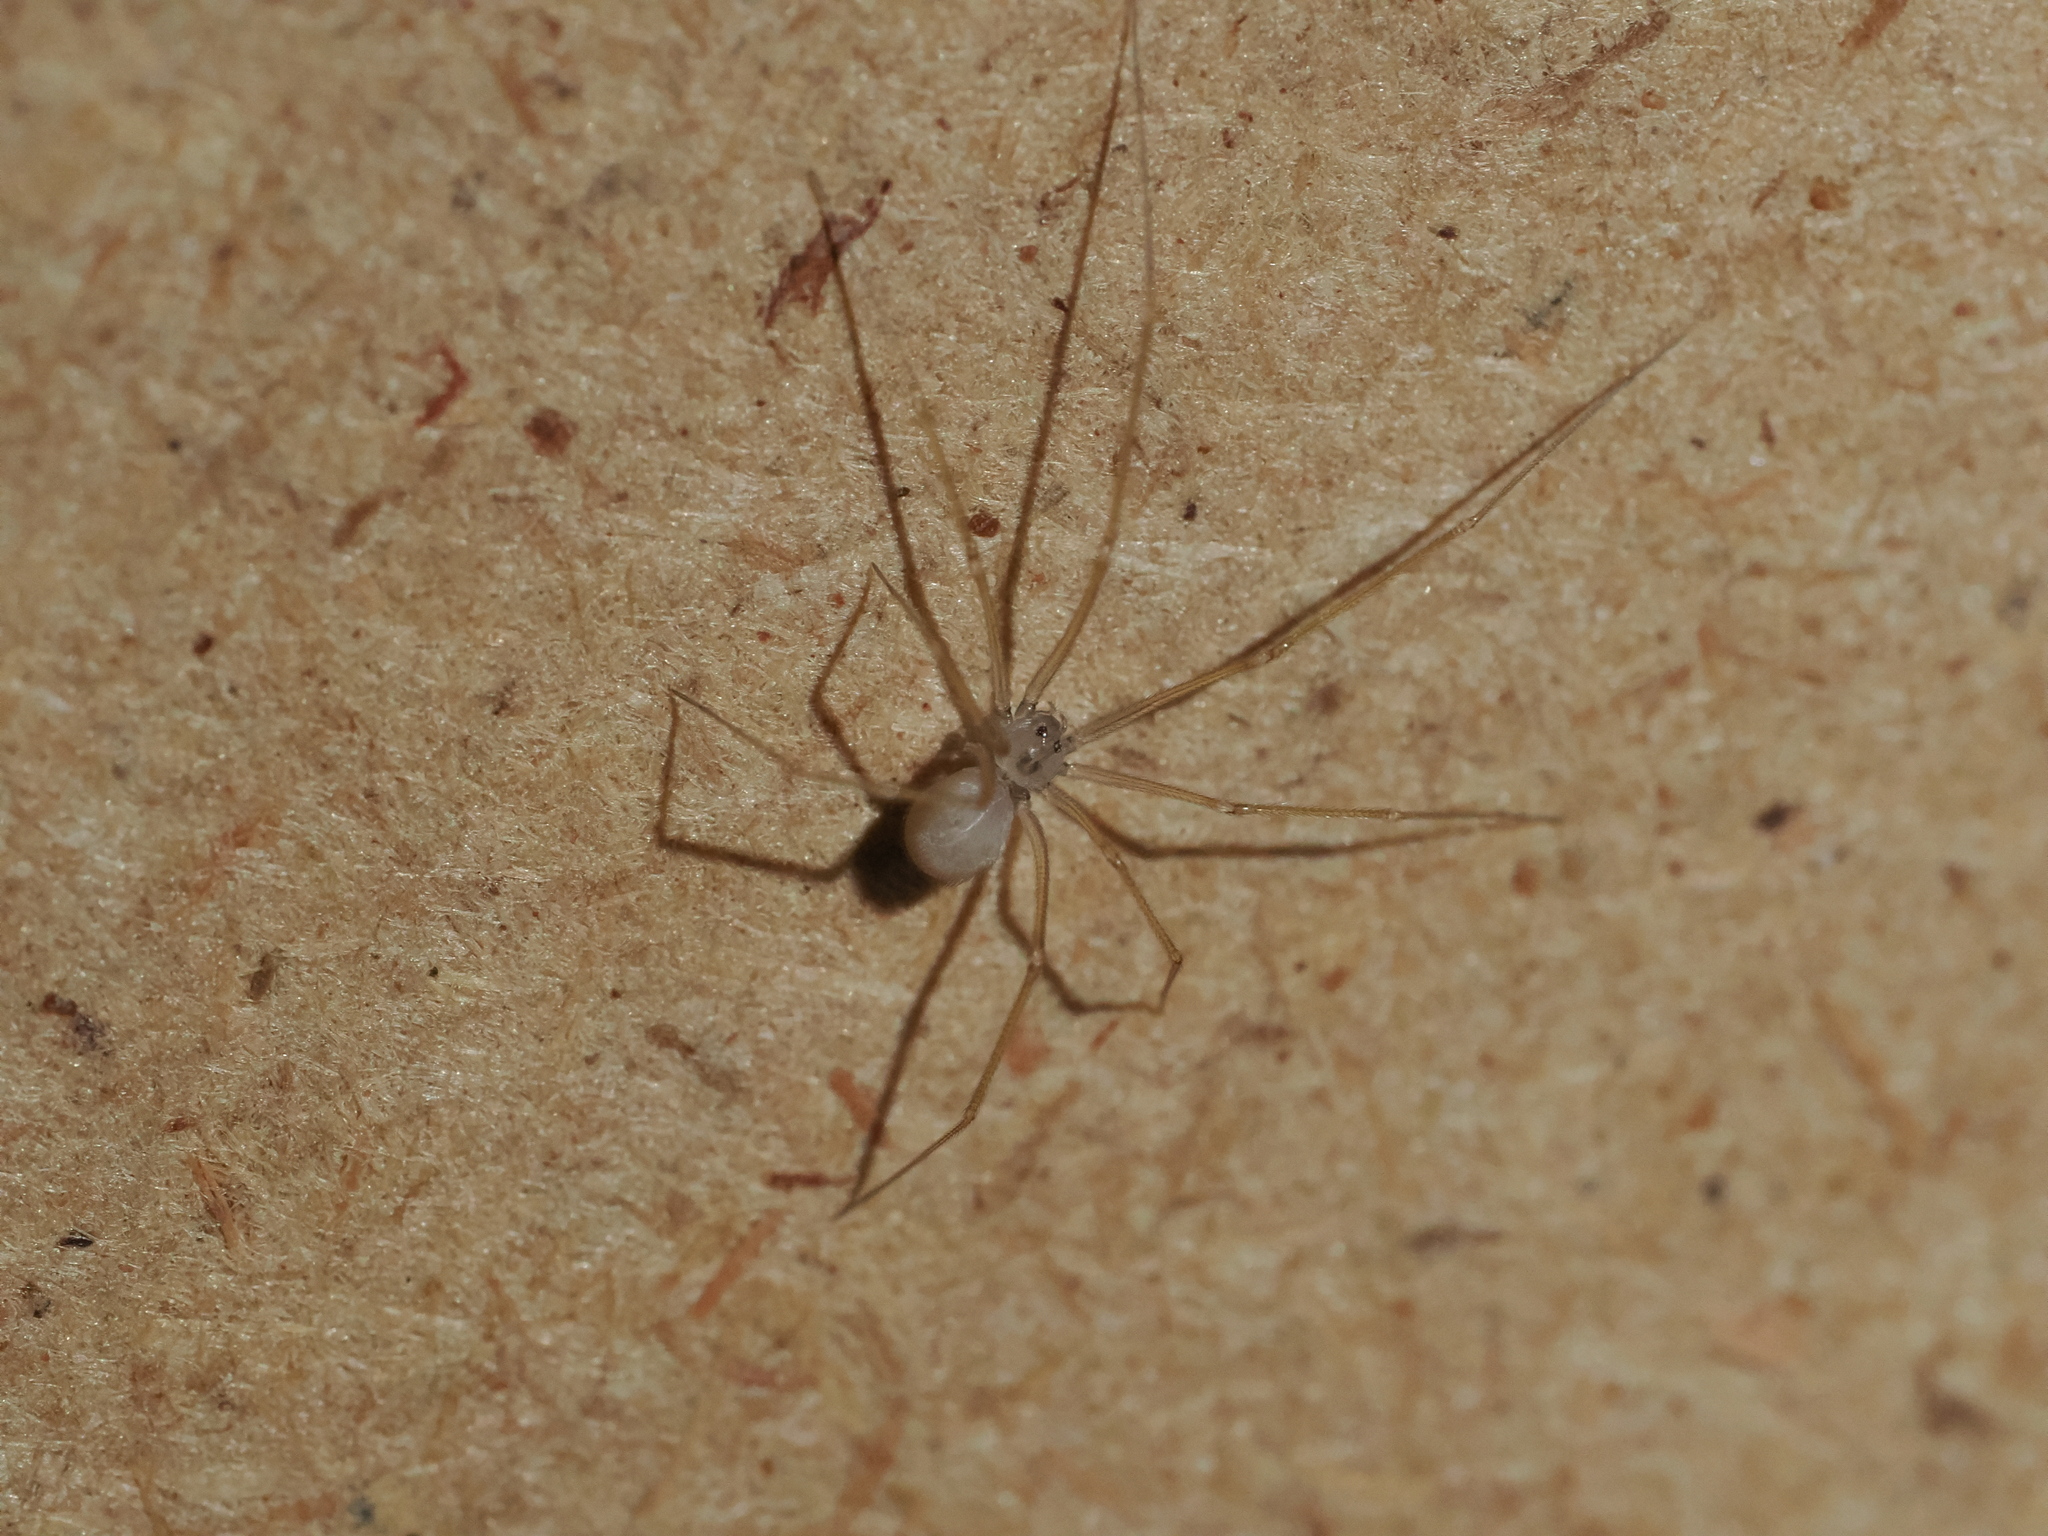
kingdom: Animalia
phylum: Arthropoda
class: Arachnida
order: Araneae
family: Pholcidae
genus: Spermophora
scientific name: Spermophora senoculata
